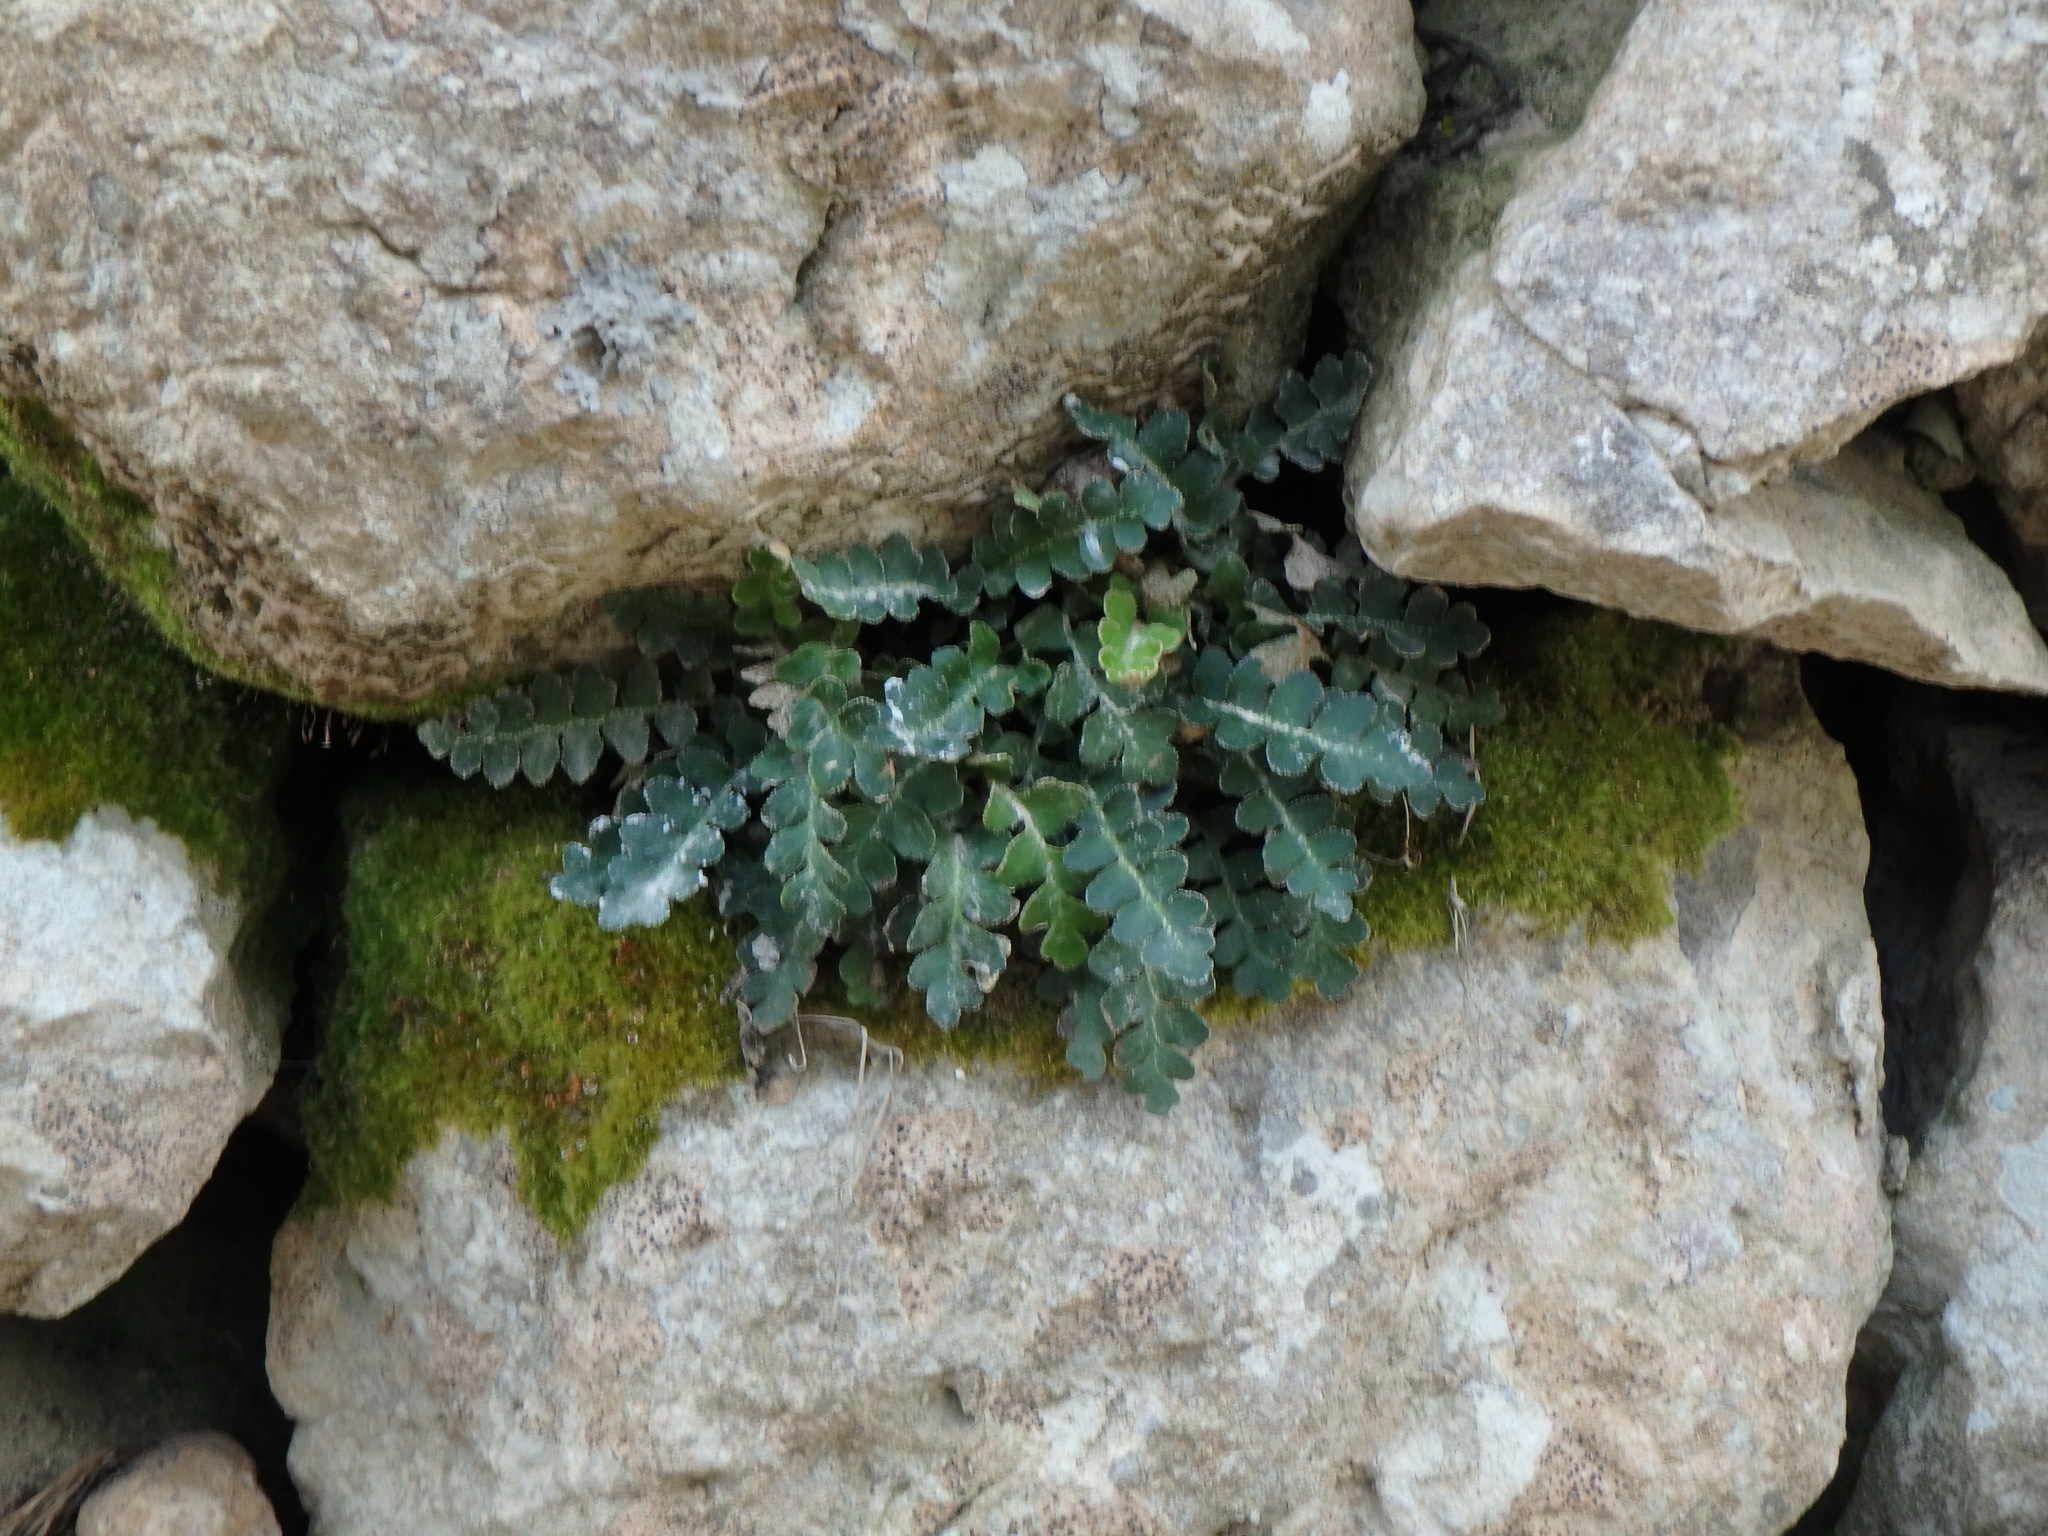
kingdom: Plantae
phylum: Tracheophyta
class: Polypodiopsida
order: Polypodiales
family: Aspleniaceae
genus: Asplenium
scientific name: Asplenium ceterach
